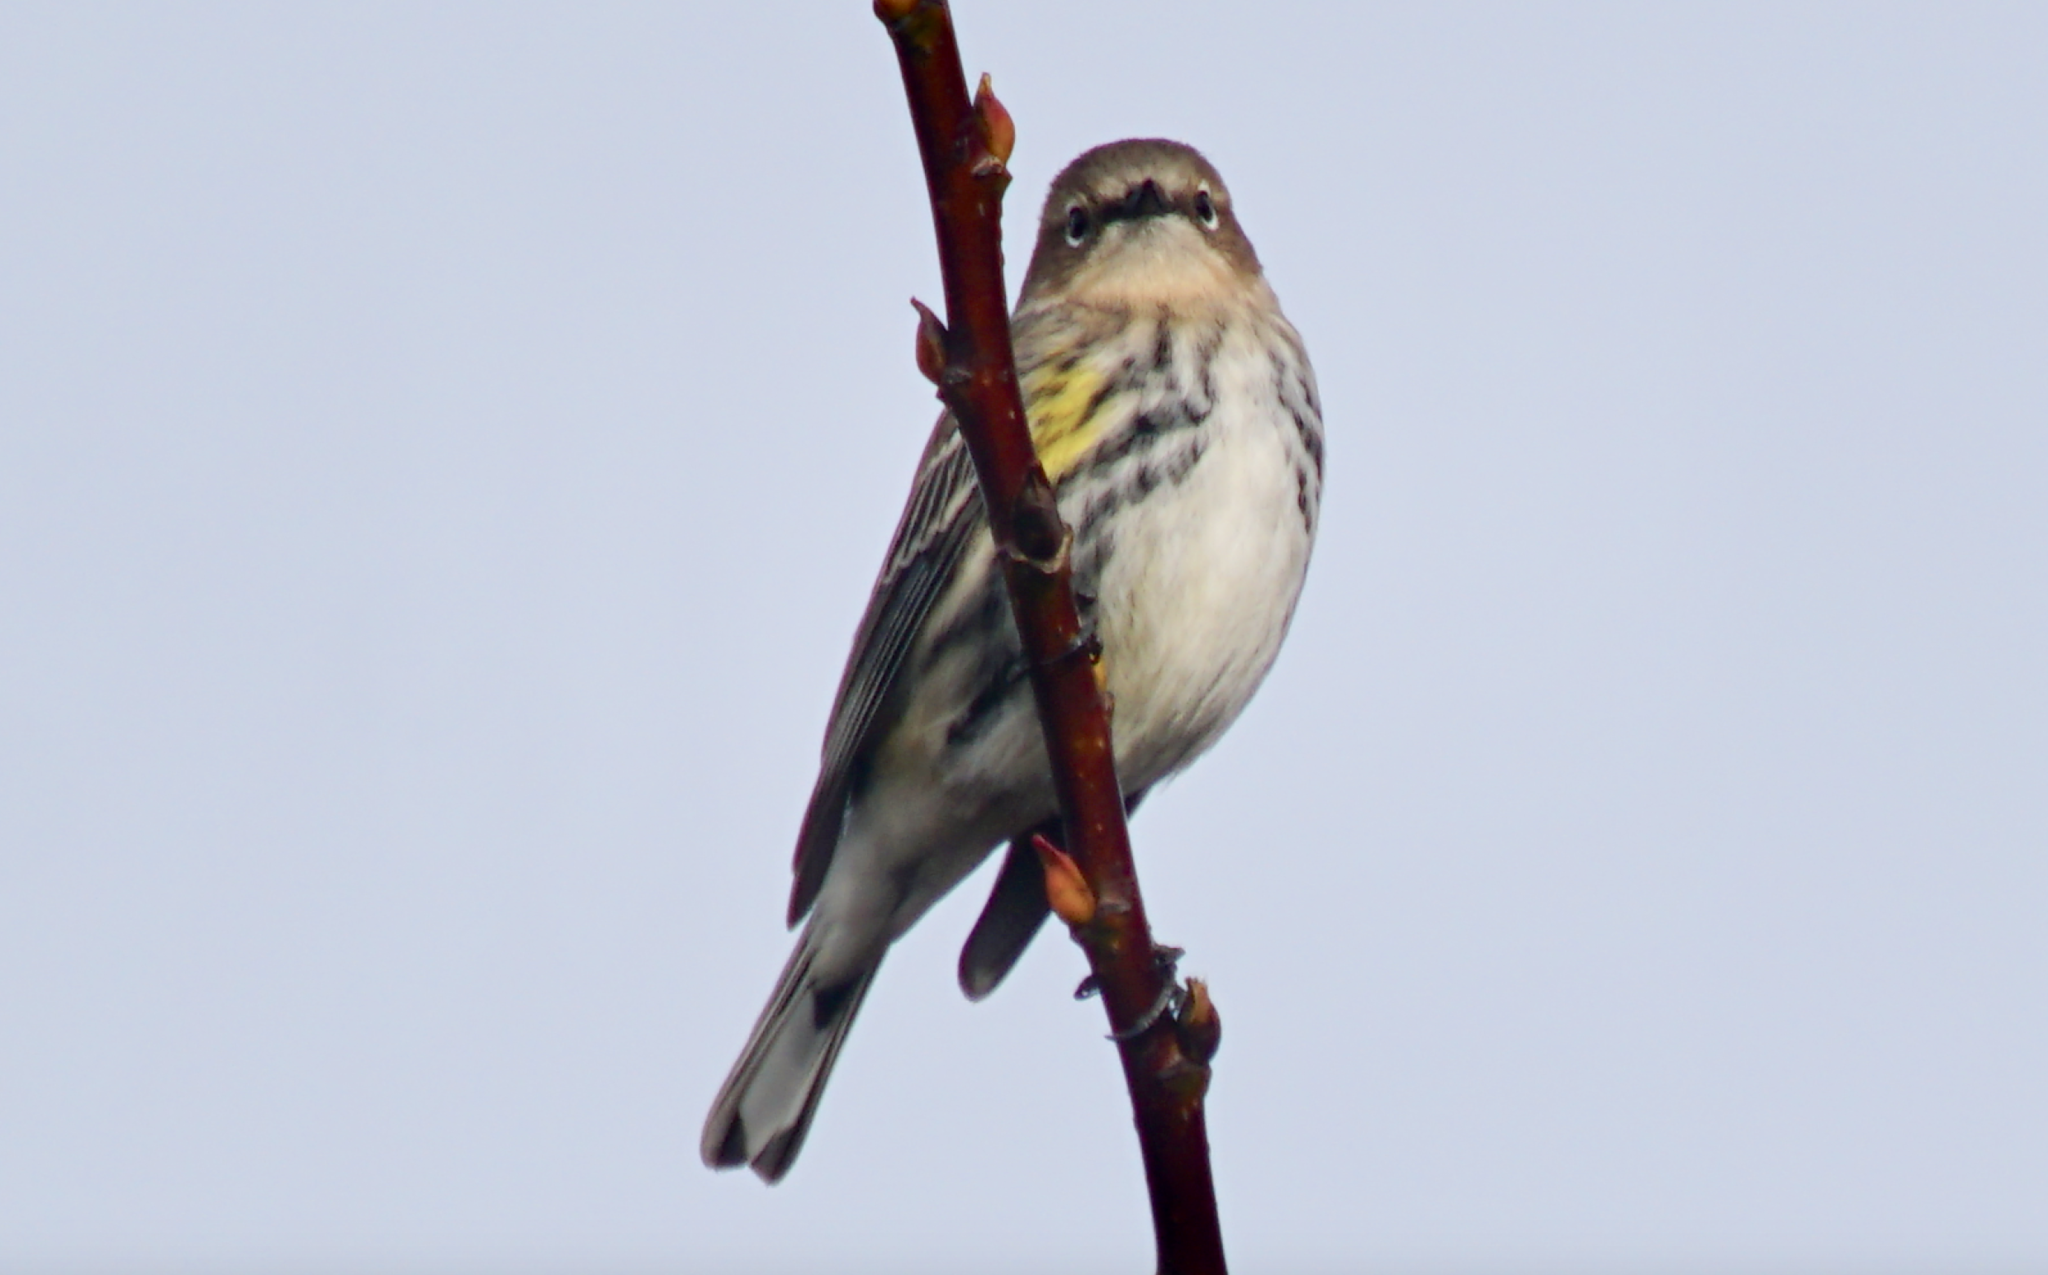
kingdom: Animalia
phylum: Chordata
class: Aves
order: Passeriformes
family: Parulidae
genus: Setophaga
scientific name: Setophaga coronata
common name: Myrtle warbler
